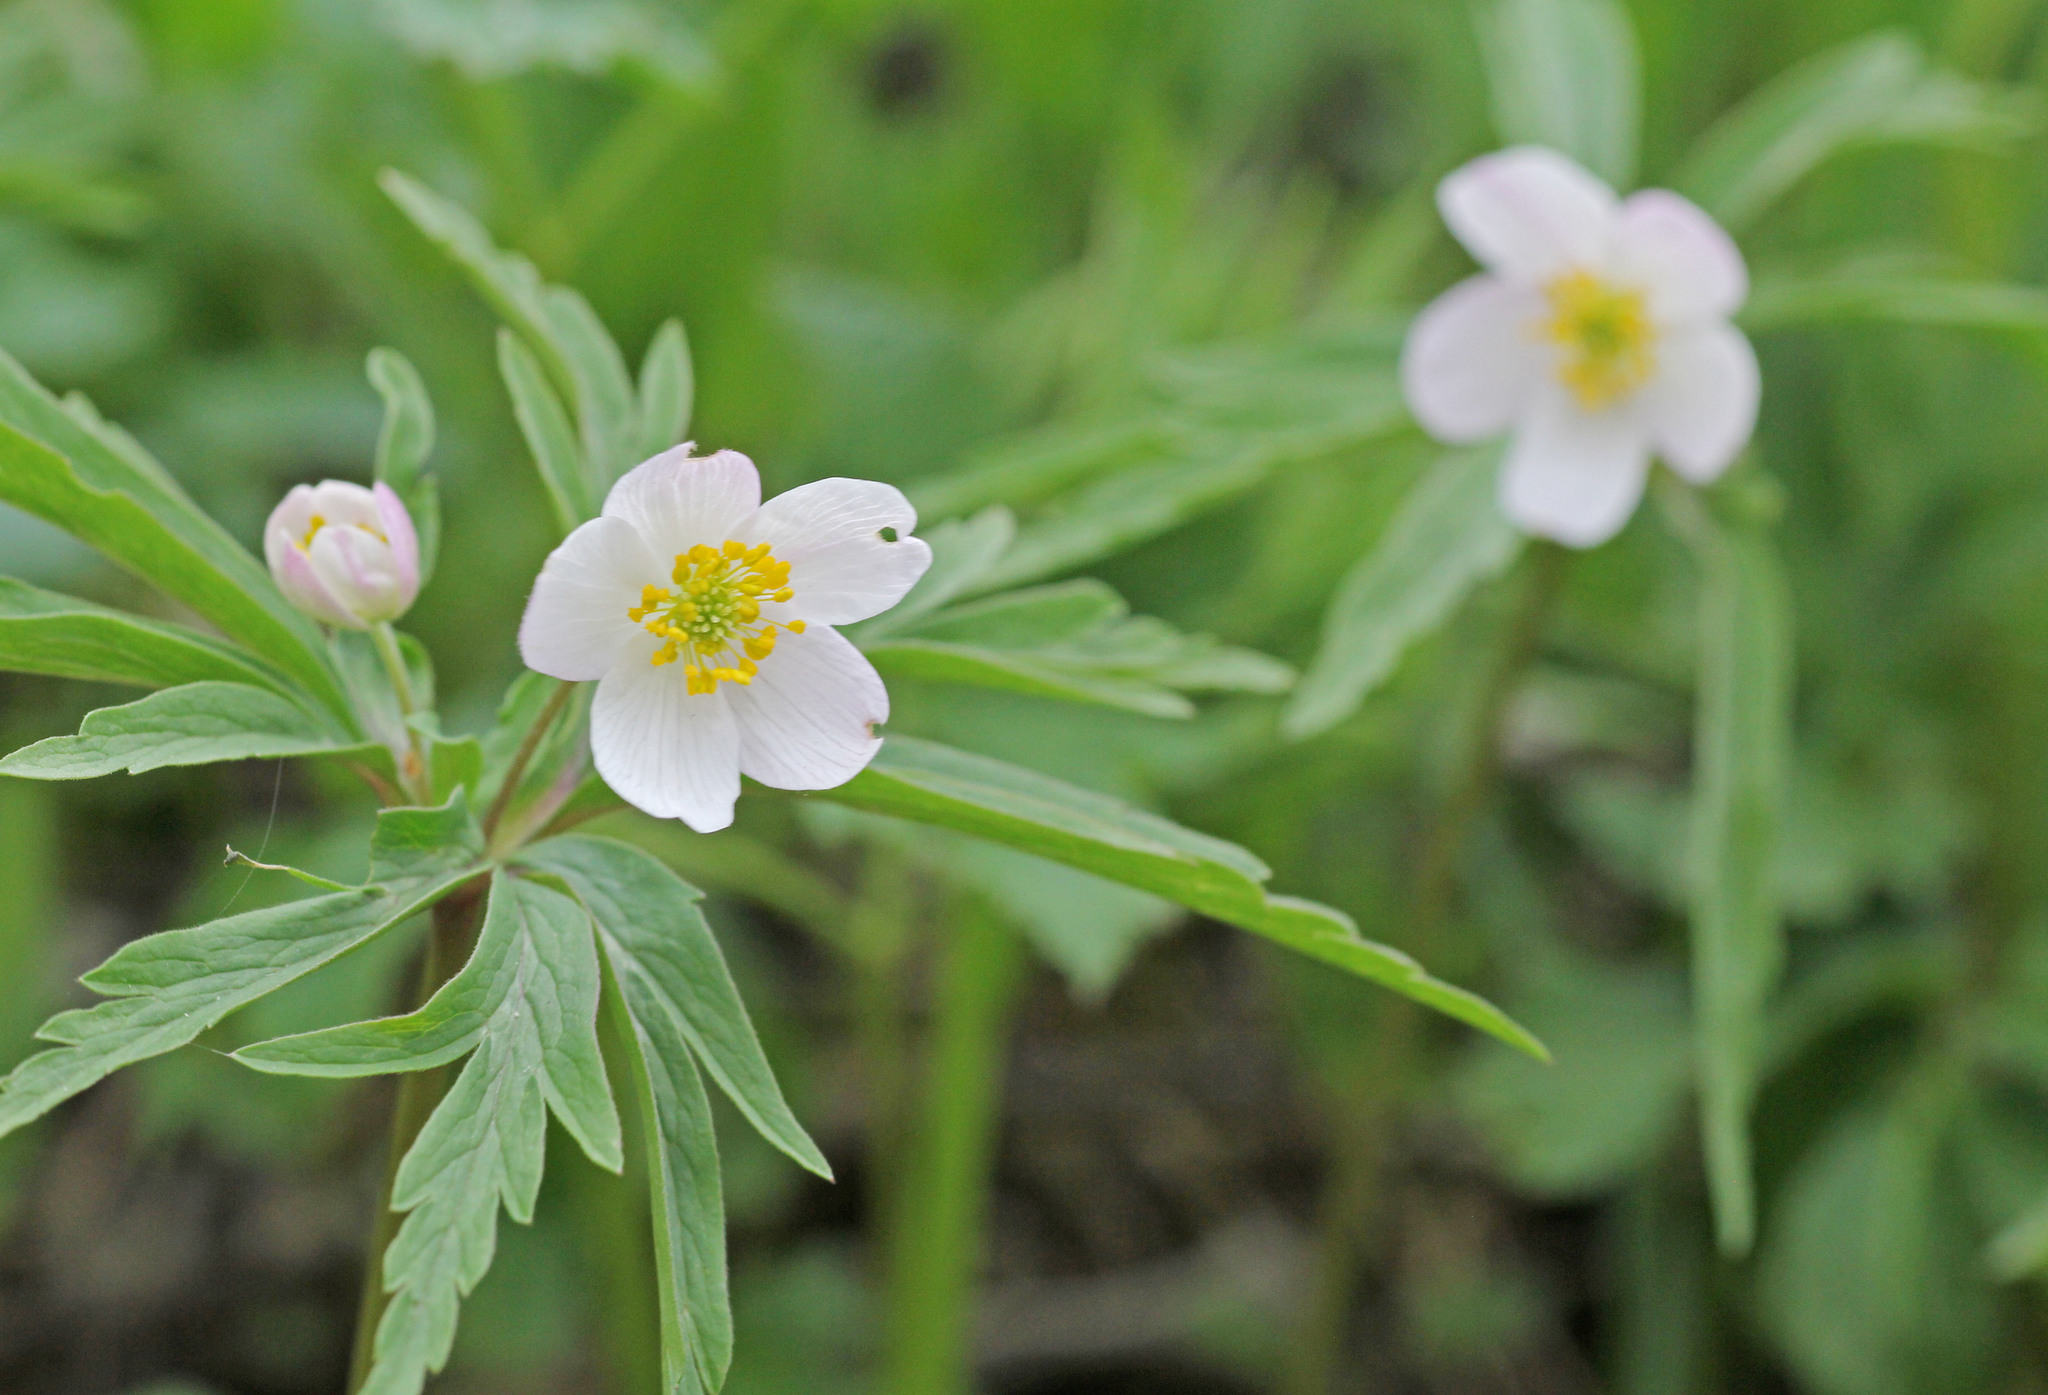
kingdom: Plantae
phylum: Tracheophyta
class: Magnoliopsida
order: Ranunculales
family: Ranunculaceae
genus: Anemone
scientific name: Anemone caerulea
